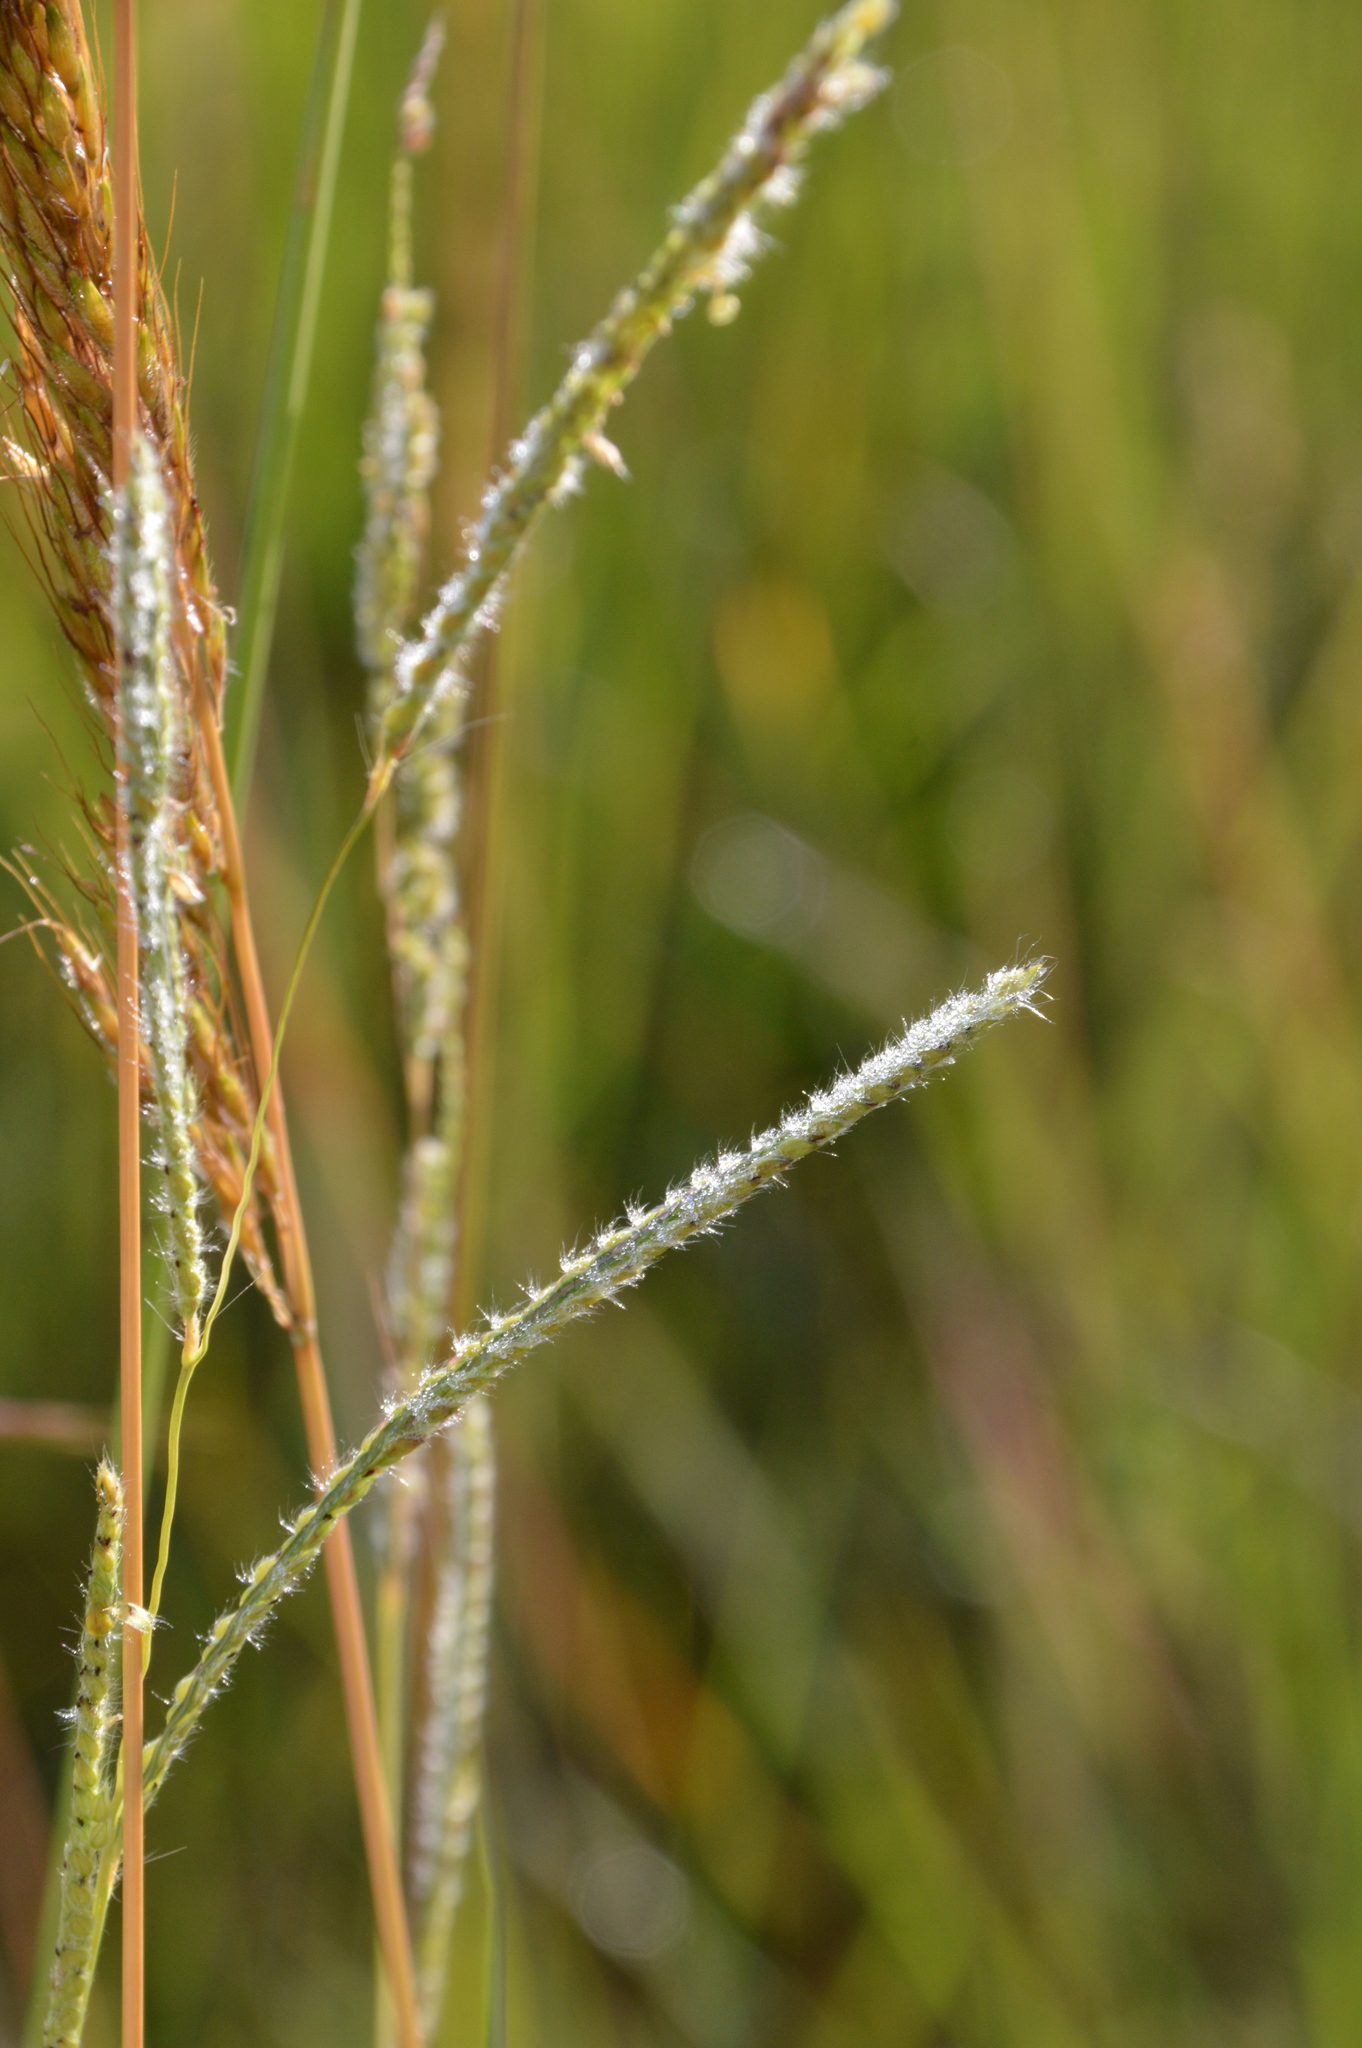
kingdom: Plantae
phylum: Tracheophyta
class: Liliopsida
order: Poales
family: Poaceae
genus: Paspalum
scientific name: Paspalum urvillei
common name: Vasey's grass
